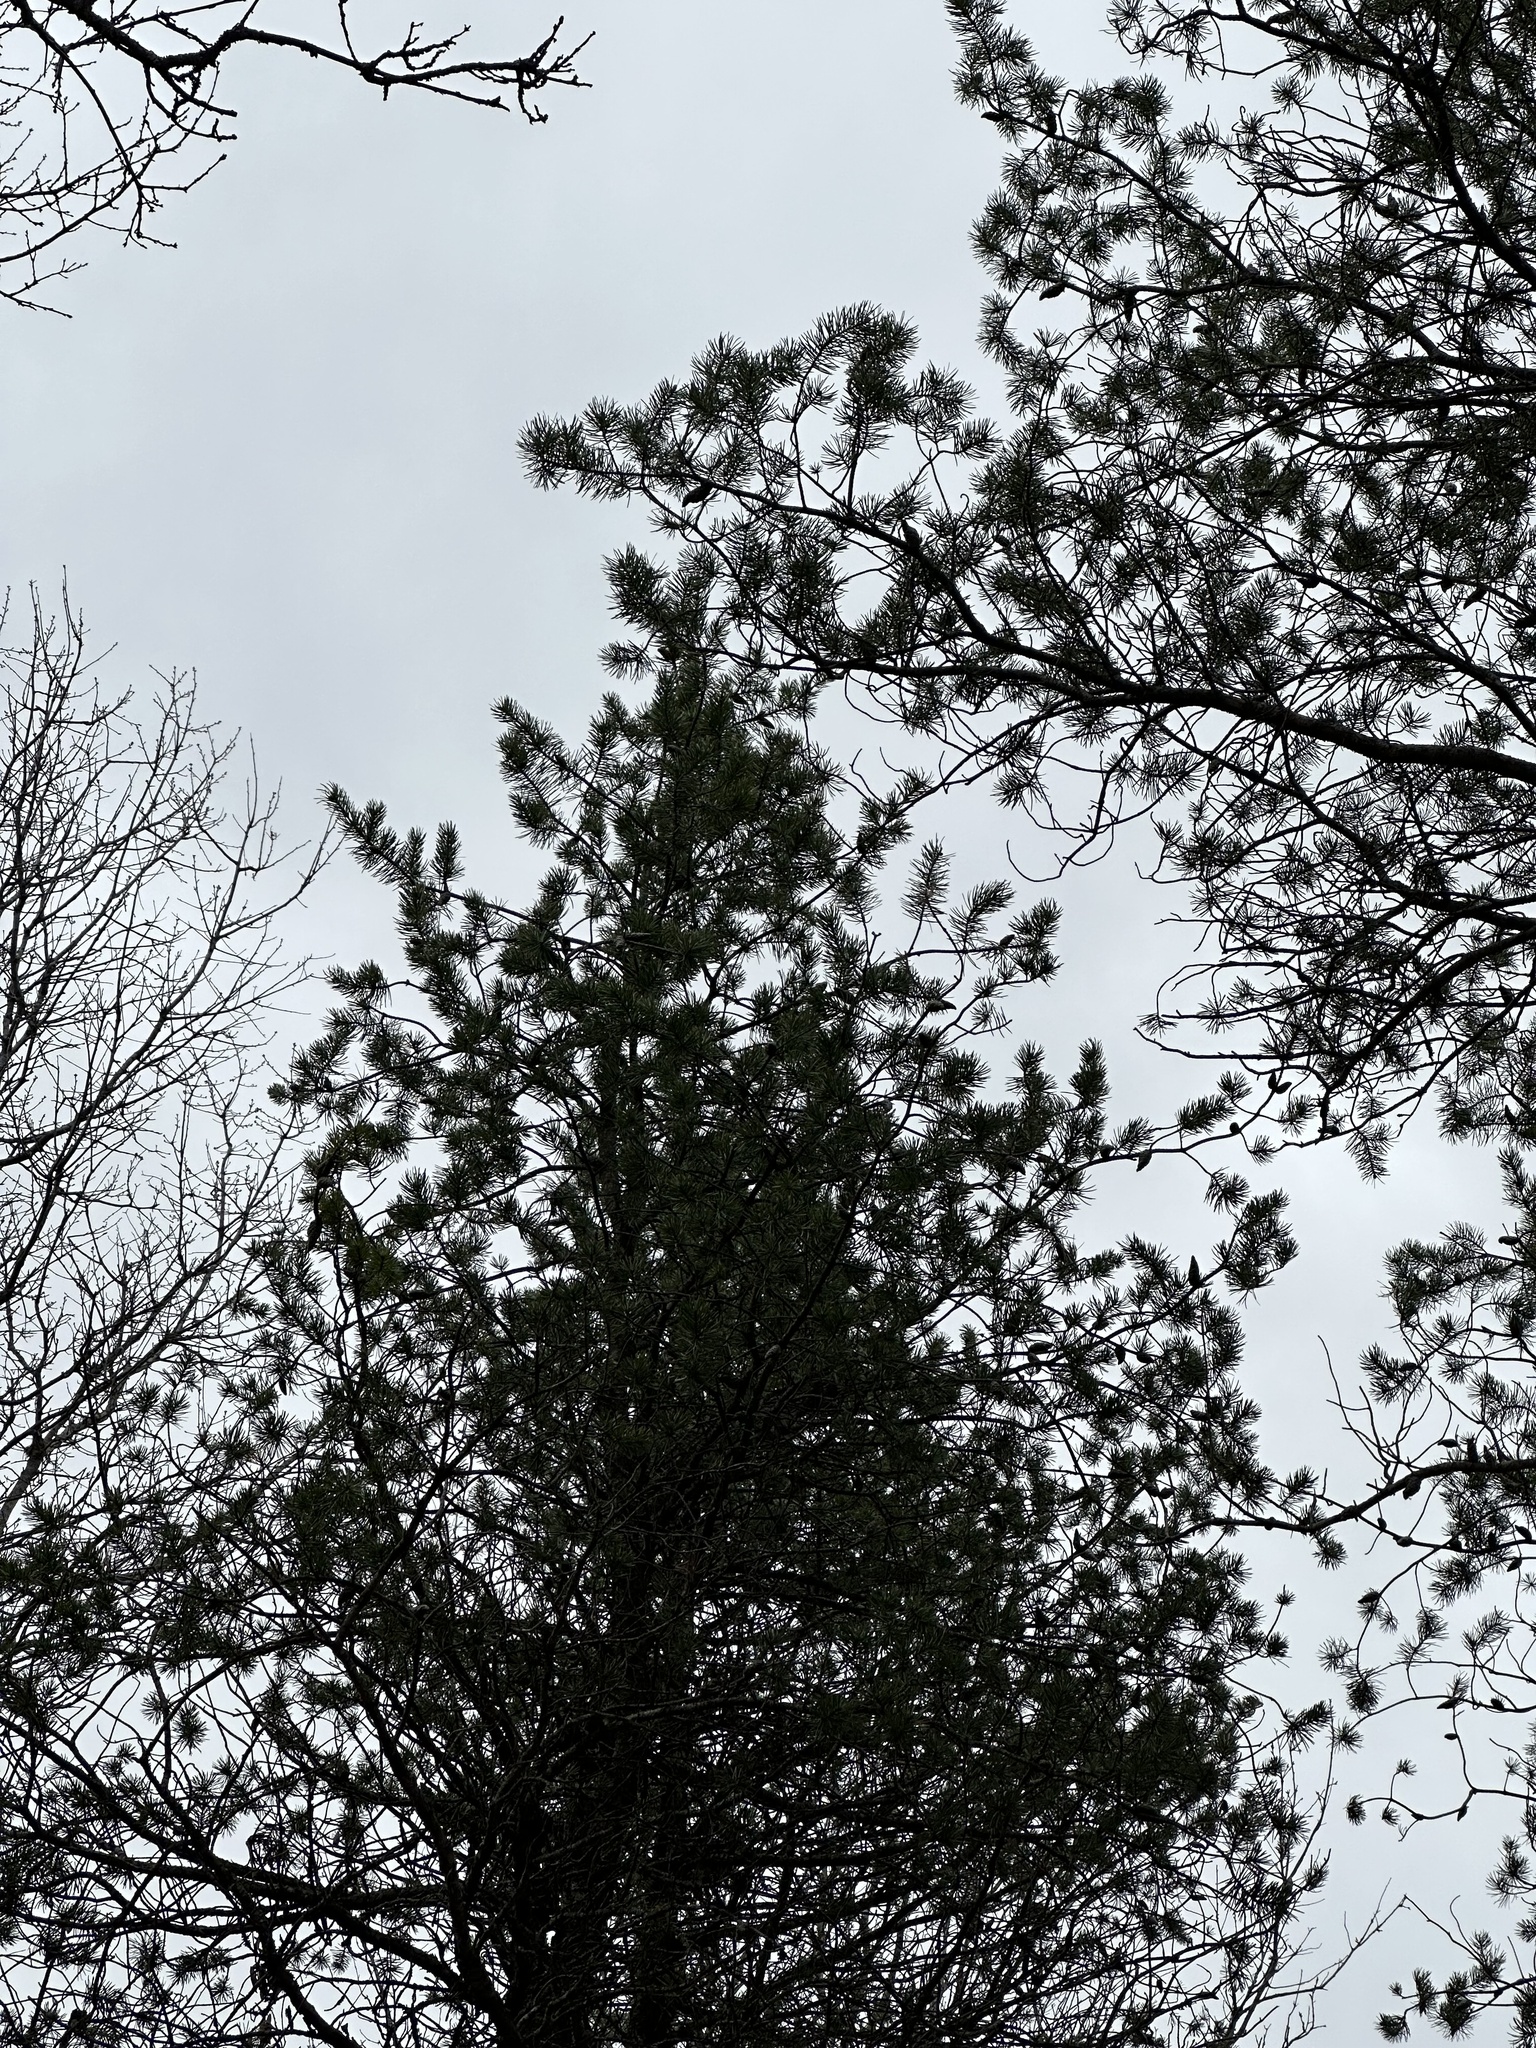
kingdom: Plantae
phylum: Tracheophyta
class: Pinopsida
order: Pinales
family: Pinaceae
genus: Pinus
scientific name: Pinus banksiana
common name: Jack pine
